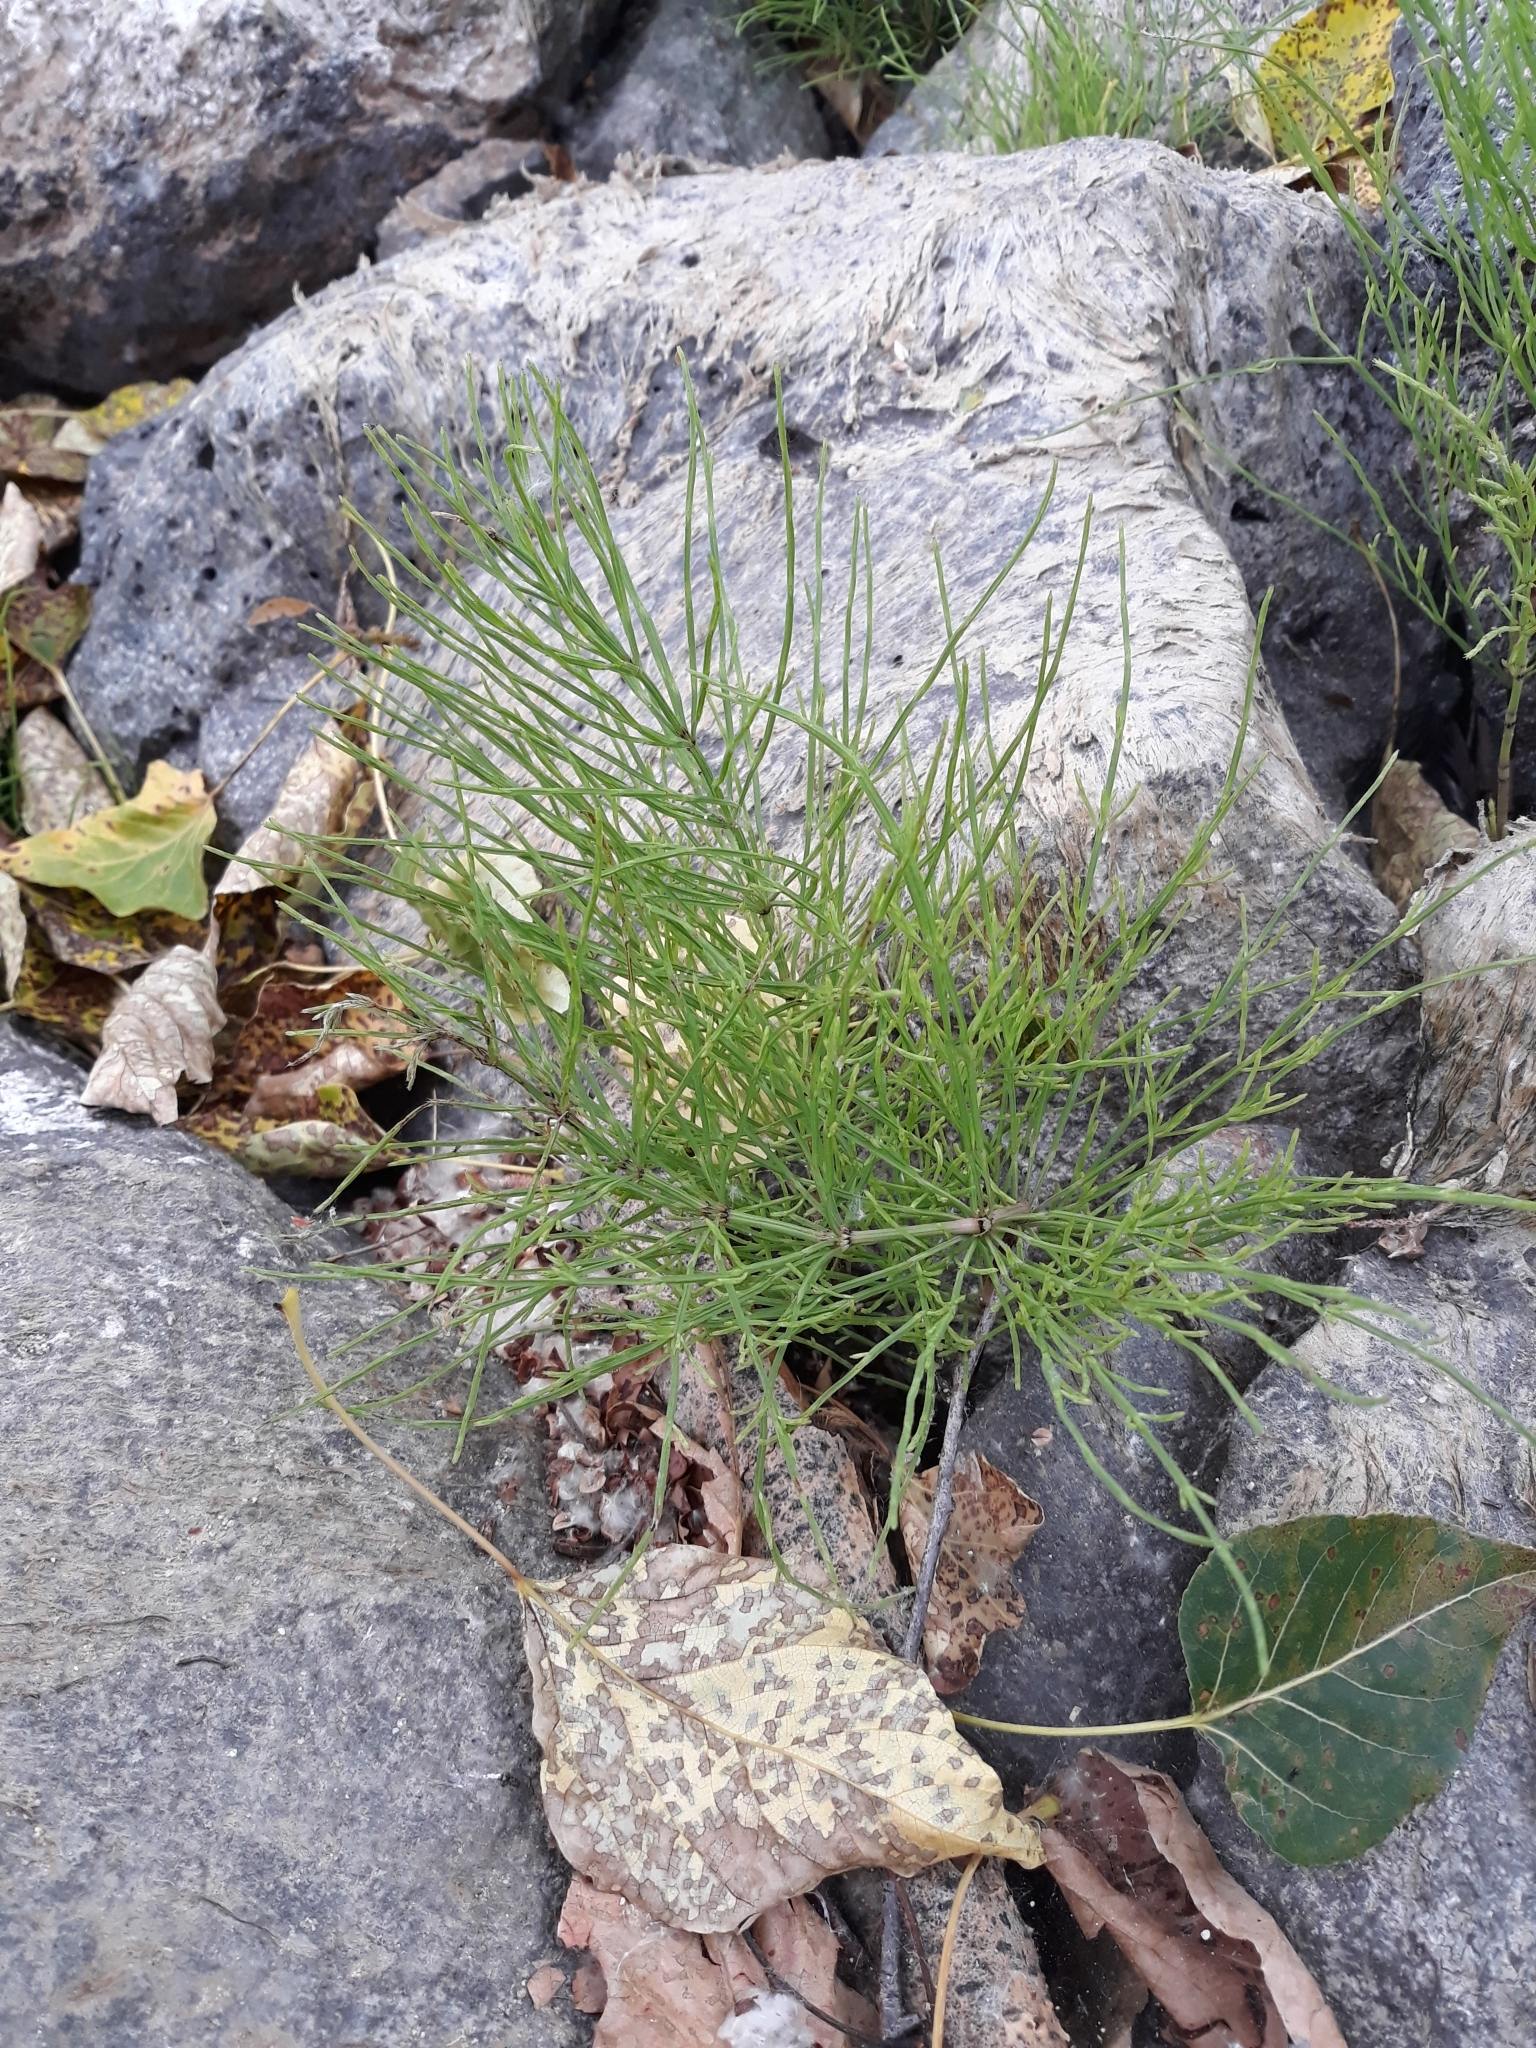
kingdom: Plantae
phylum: Tracheophyta
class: Polypodiopsida
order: Equisetales
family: Equisetaceae
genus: Equisetum
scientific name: Equisetum arvense
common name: Field horsetail
